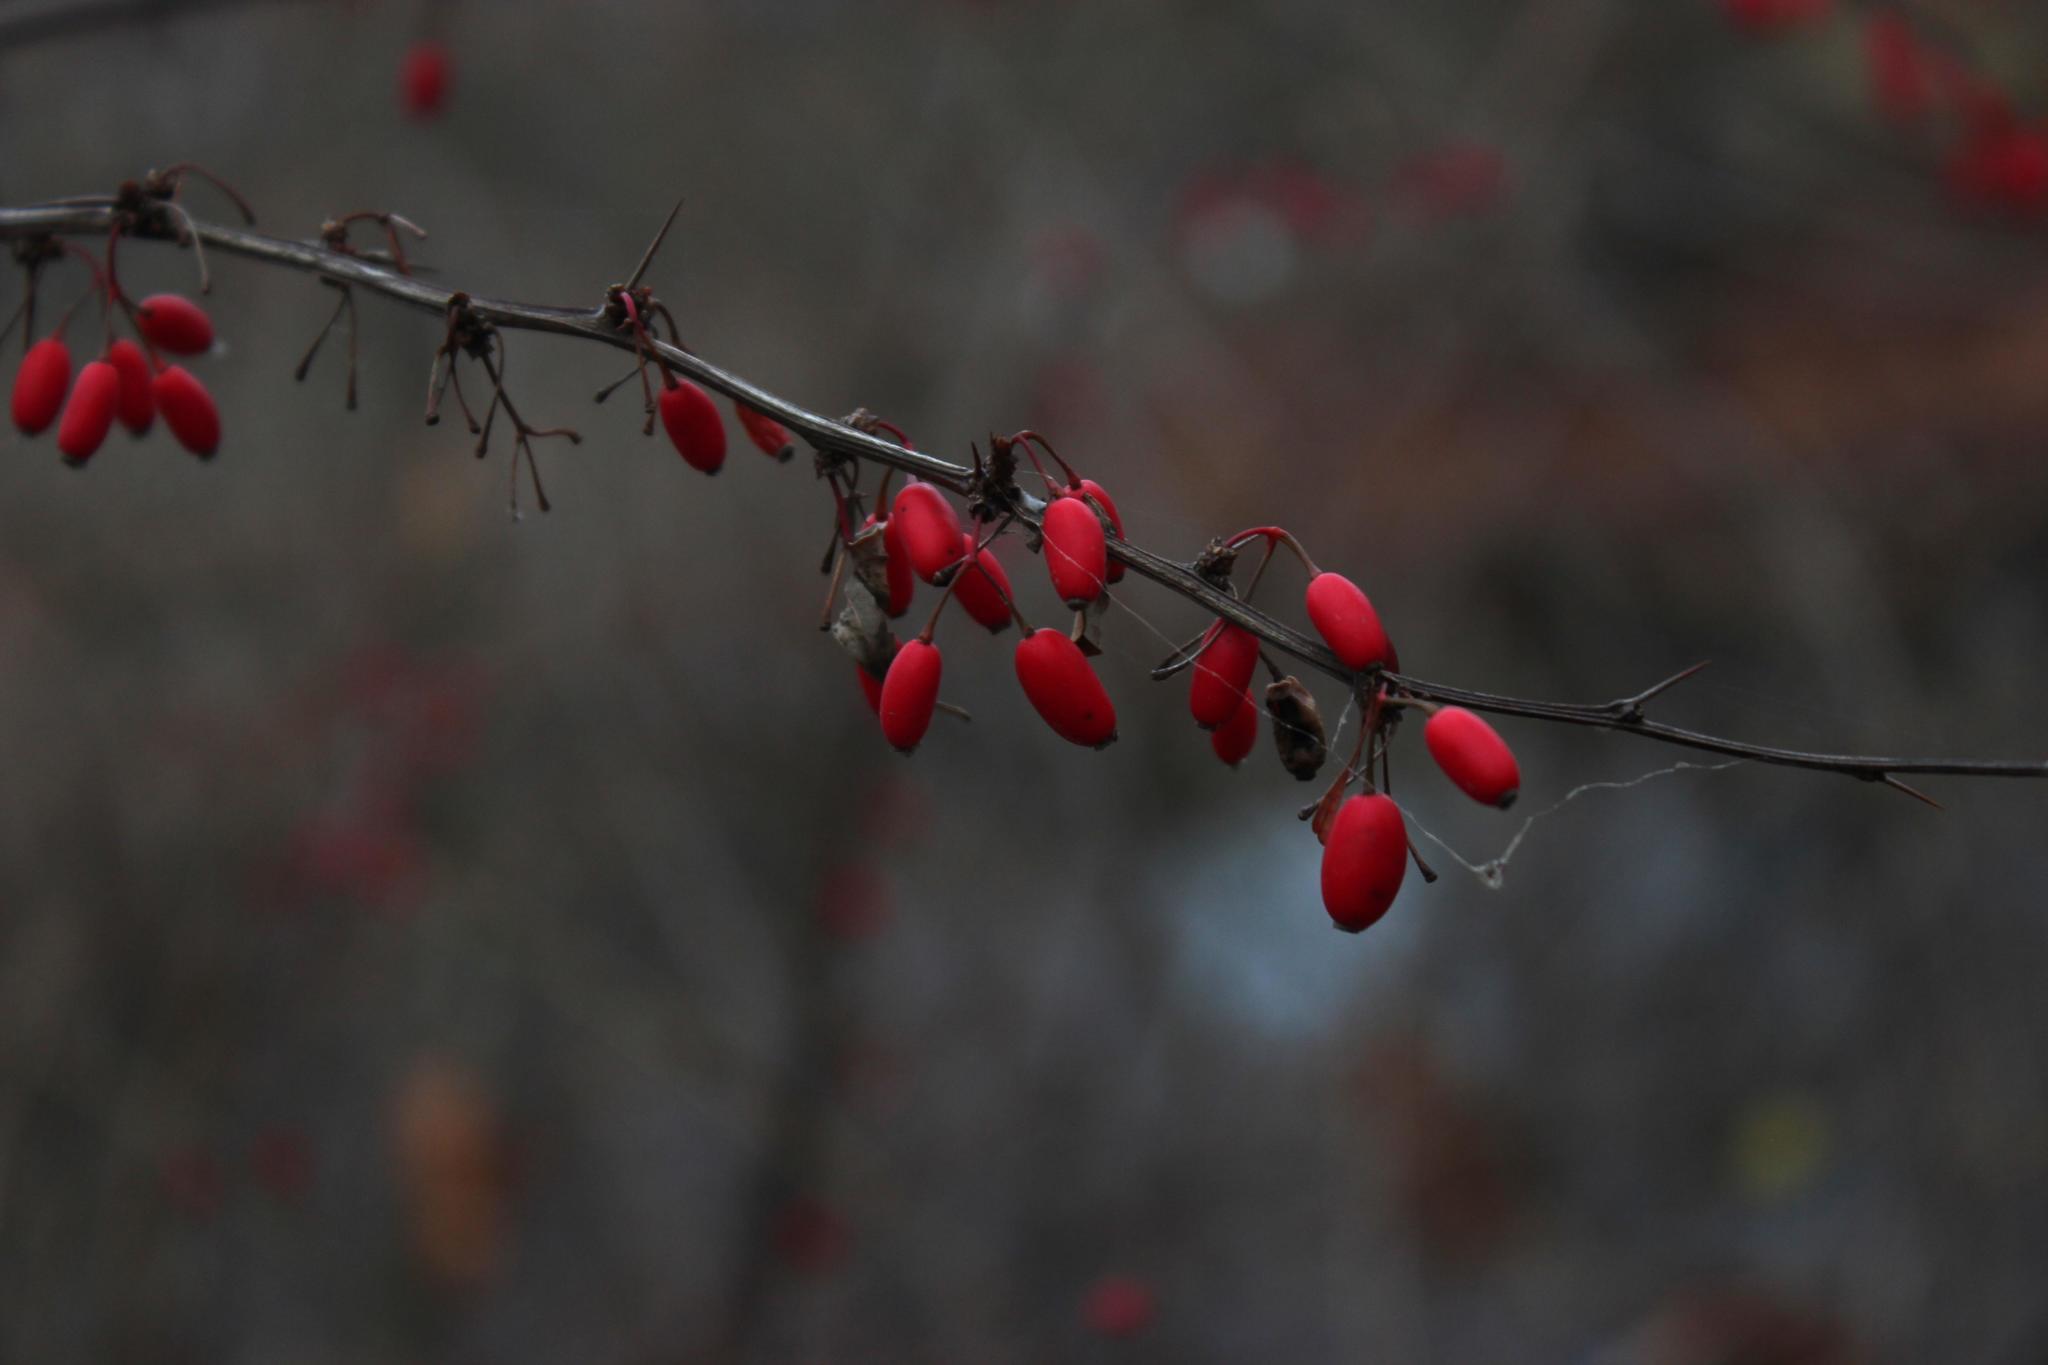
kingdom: Plantae
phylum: Tracheophyta
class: Magnoliopsida
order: Ranunculales
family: Berberidaceae
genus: Berberis
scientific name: Berberis vulgaris
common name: Barberry
